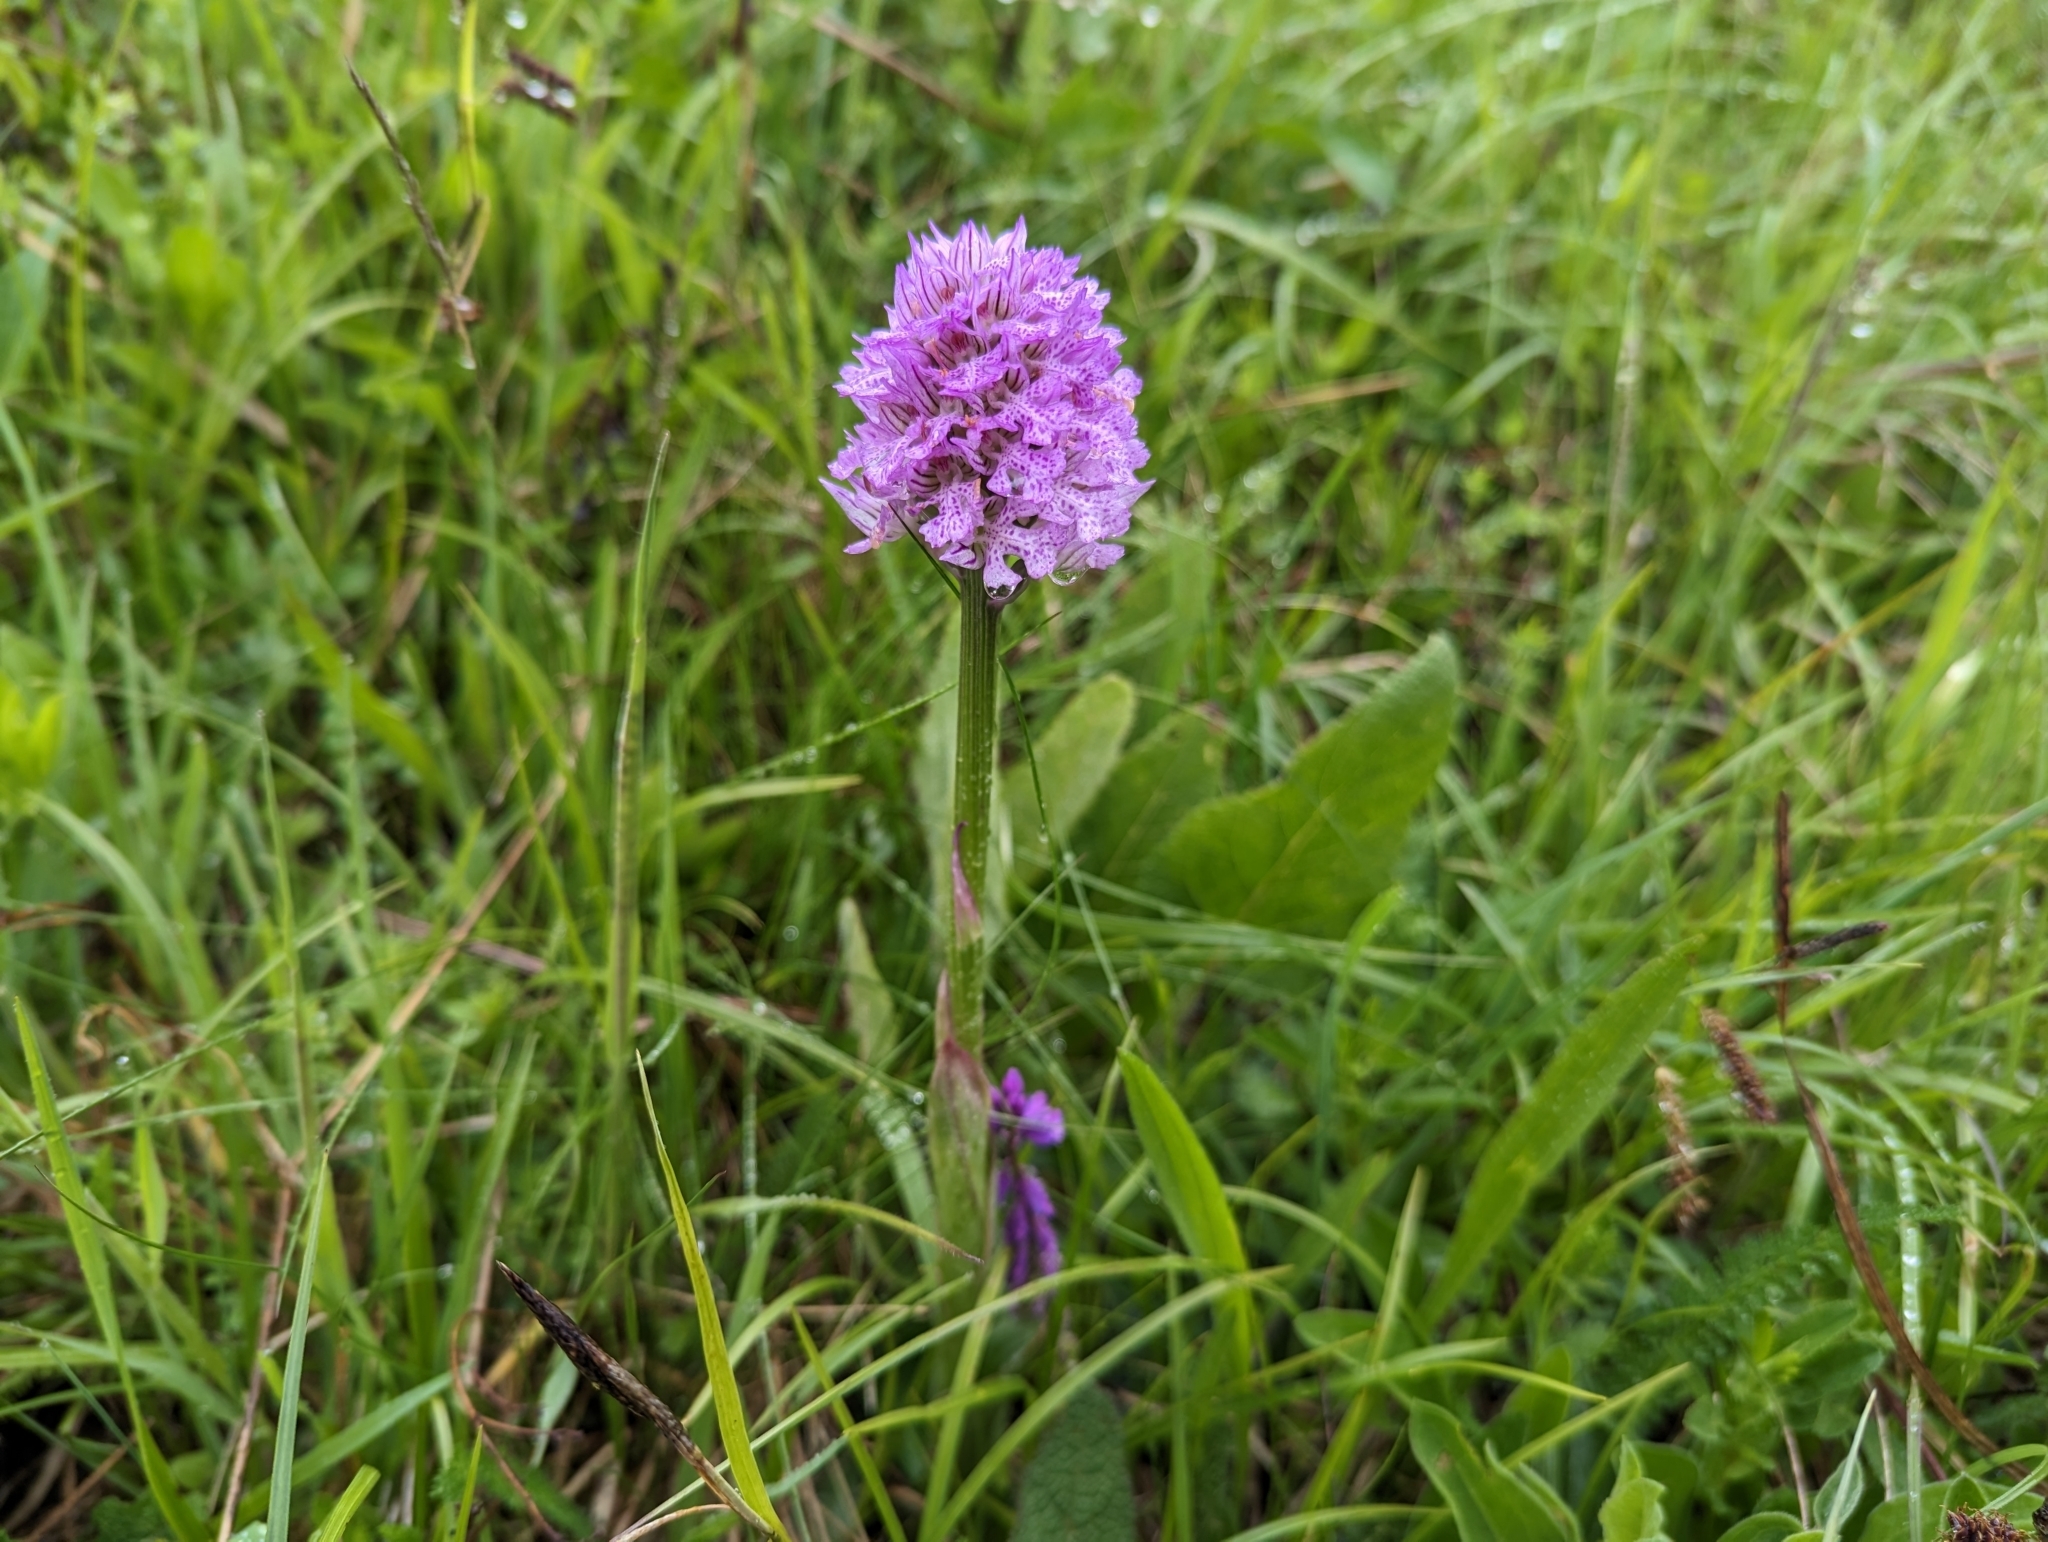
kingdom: Plantae
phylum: Tracheophyta
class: Liliopsida
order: Asparagales
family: Orchidaceae
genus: Neotinea
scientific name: Neotinea tridentata
